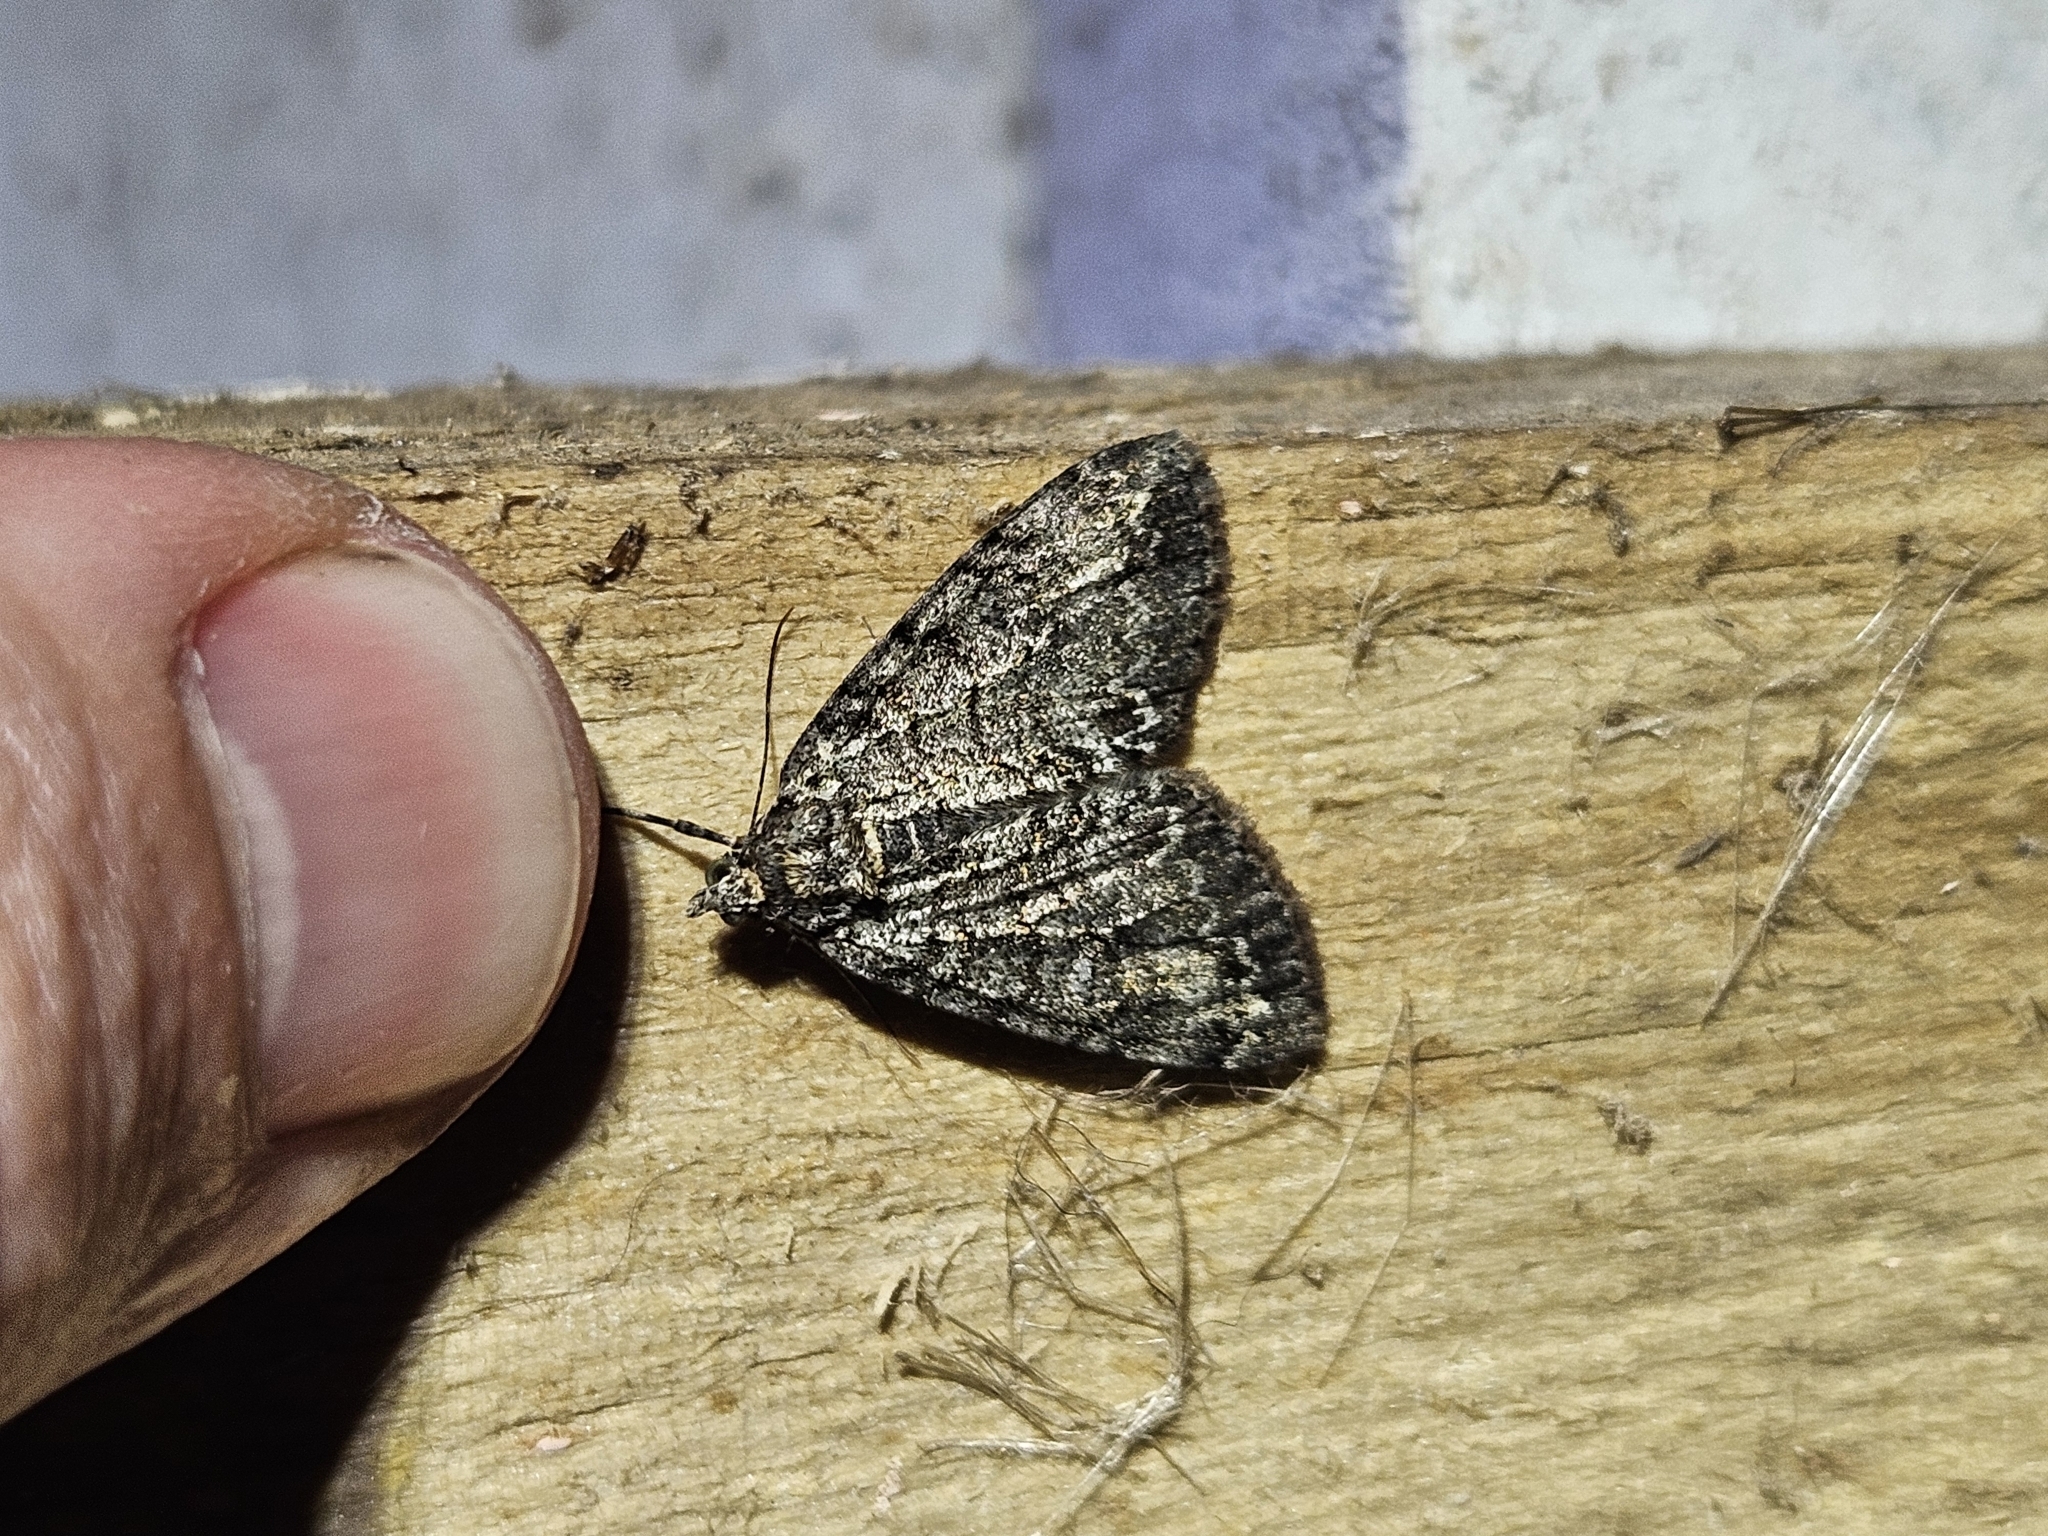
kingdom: Animalia
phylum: Arthropoda
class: Insecta
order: Lepidoptera
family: Geometridae
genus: Pseudocoremia
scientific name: Pseudocoremia suavis
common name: Common forest looper
